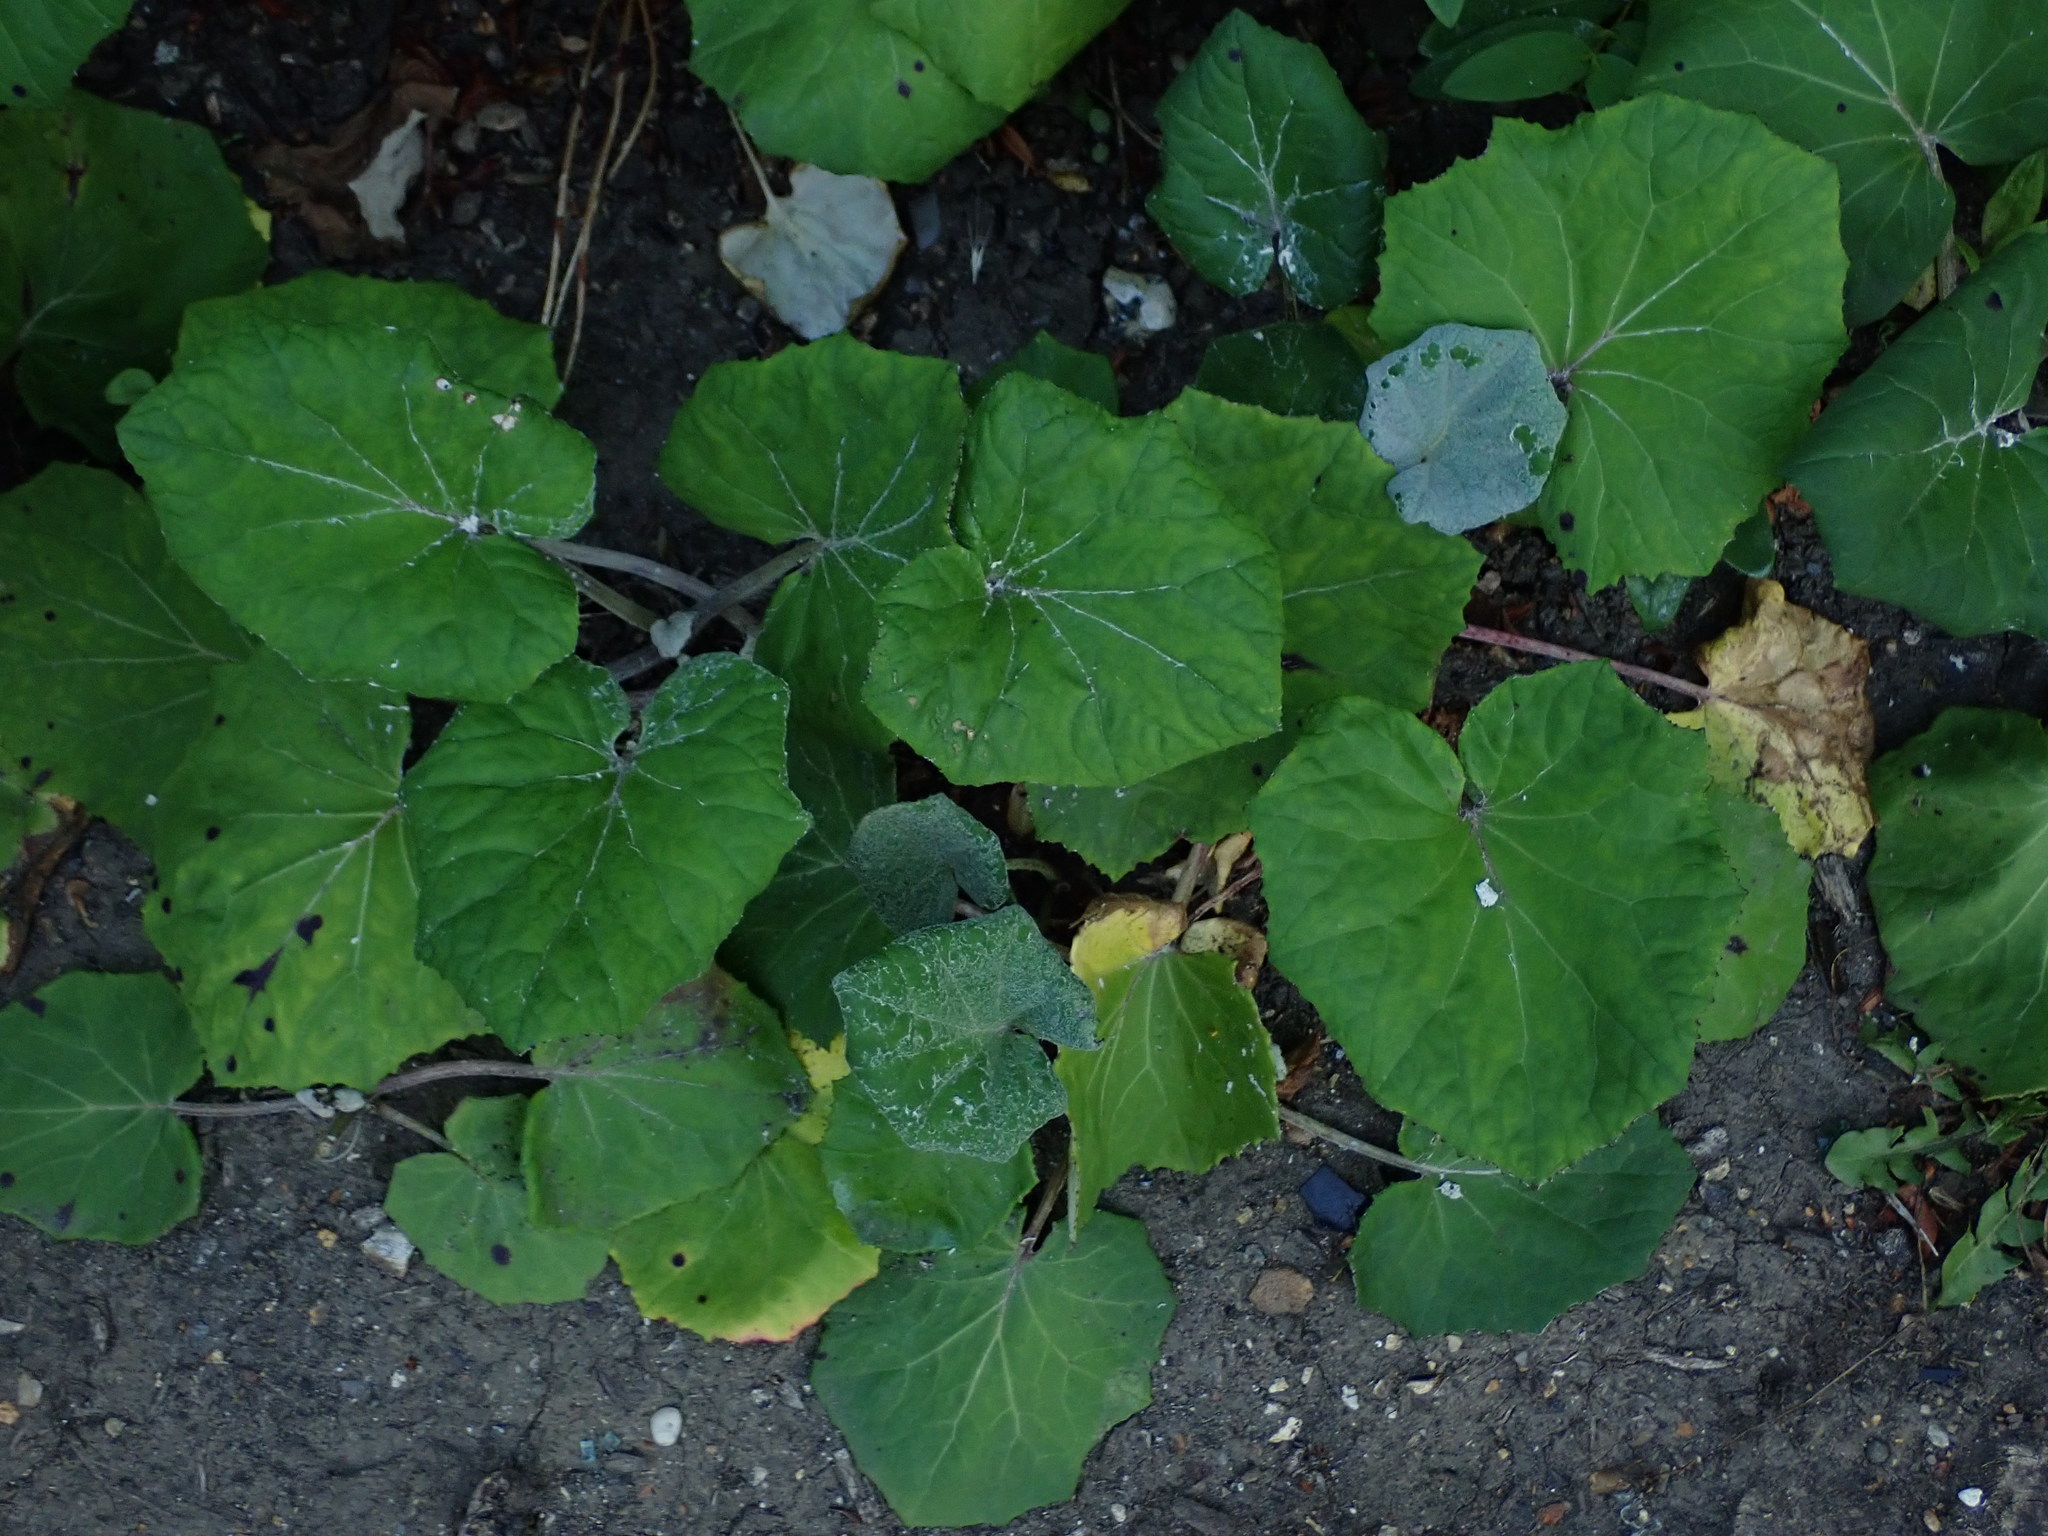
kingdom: Plantae
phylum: Tracheophyta
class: Magnoliopsida
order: Asterales
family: Asteraceae
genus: Tussilago
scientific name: Tussilago farfara
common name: Coltsfoot
